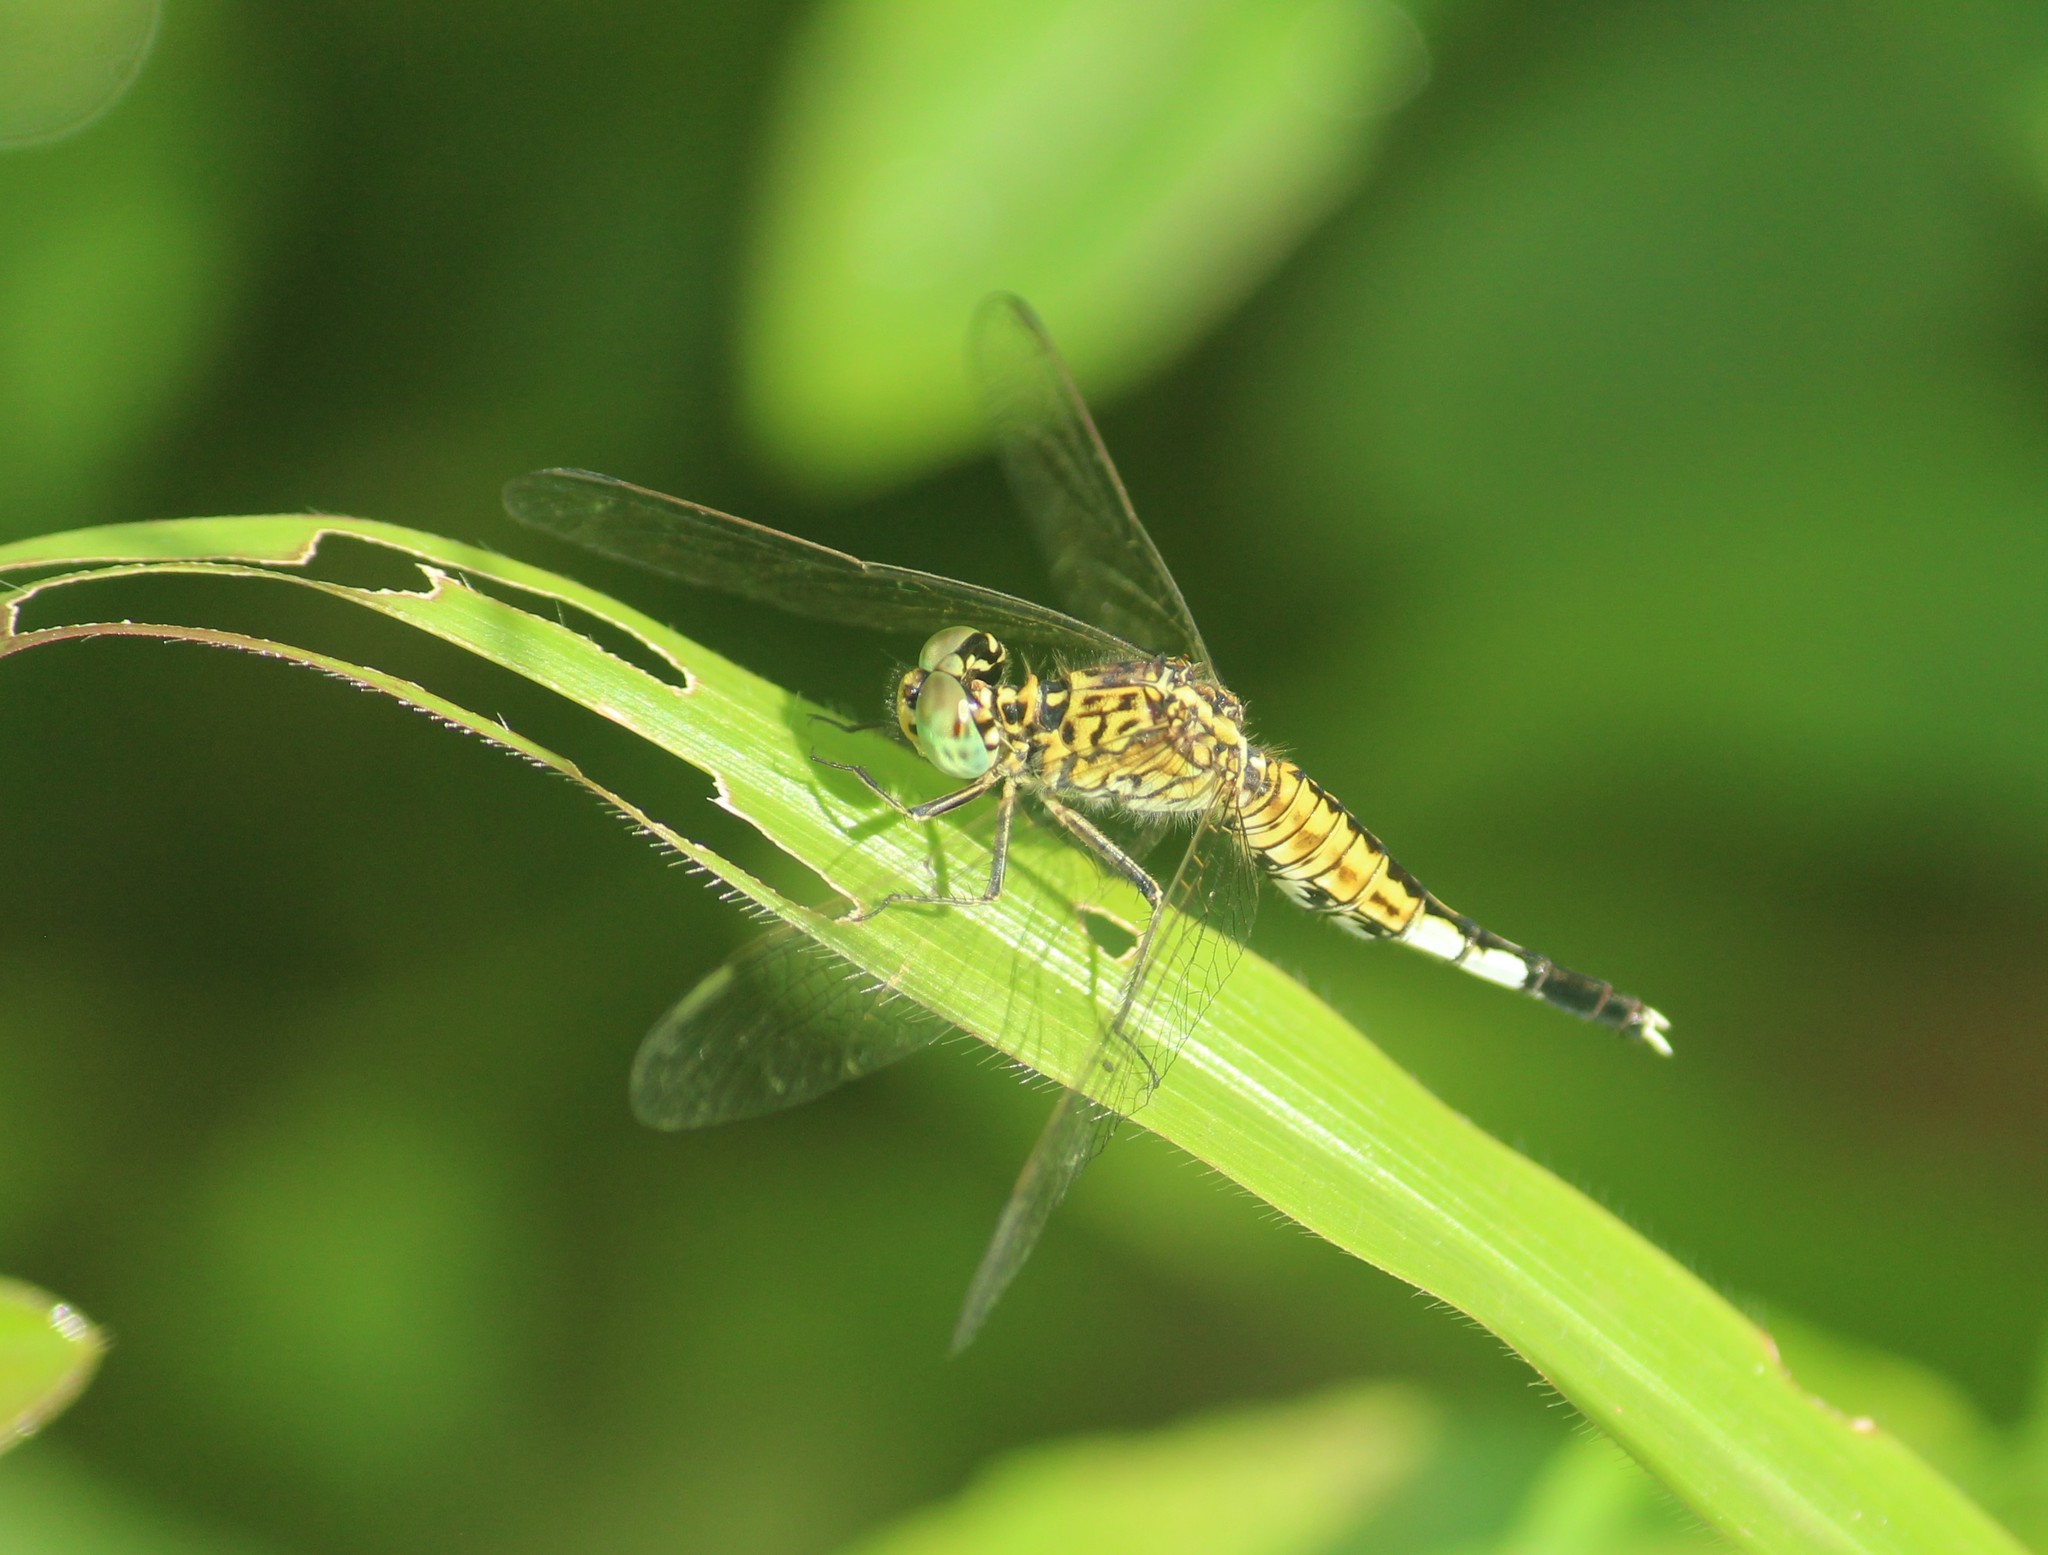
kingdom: Animalia
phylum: Arthropoda
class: Insecta
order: Odonata
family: Libellulidae
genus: Acisoma
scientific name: Acisoma panorpoides
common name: Asian pintail
